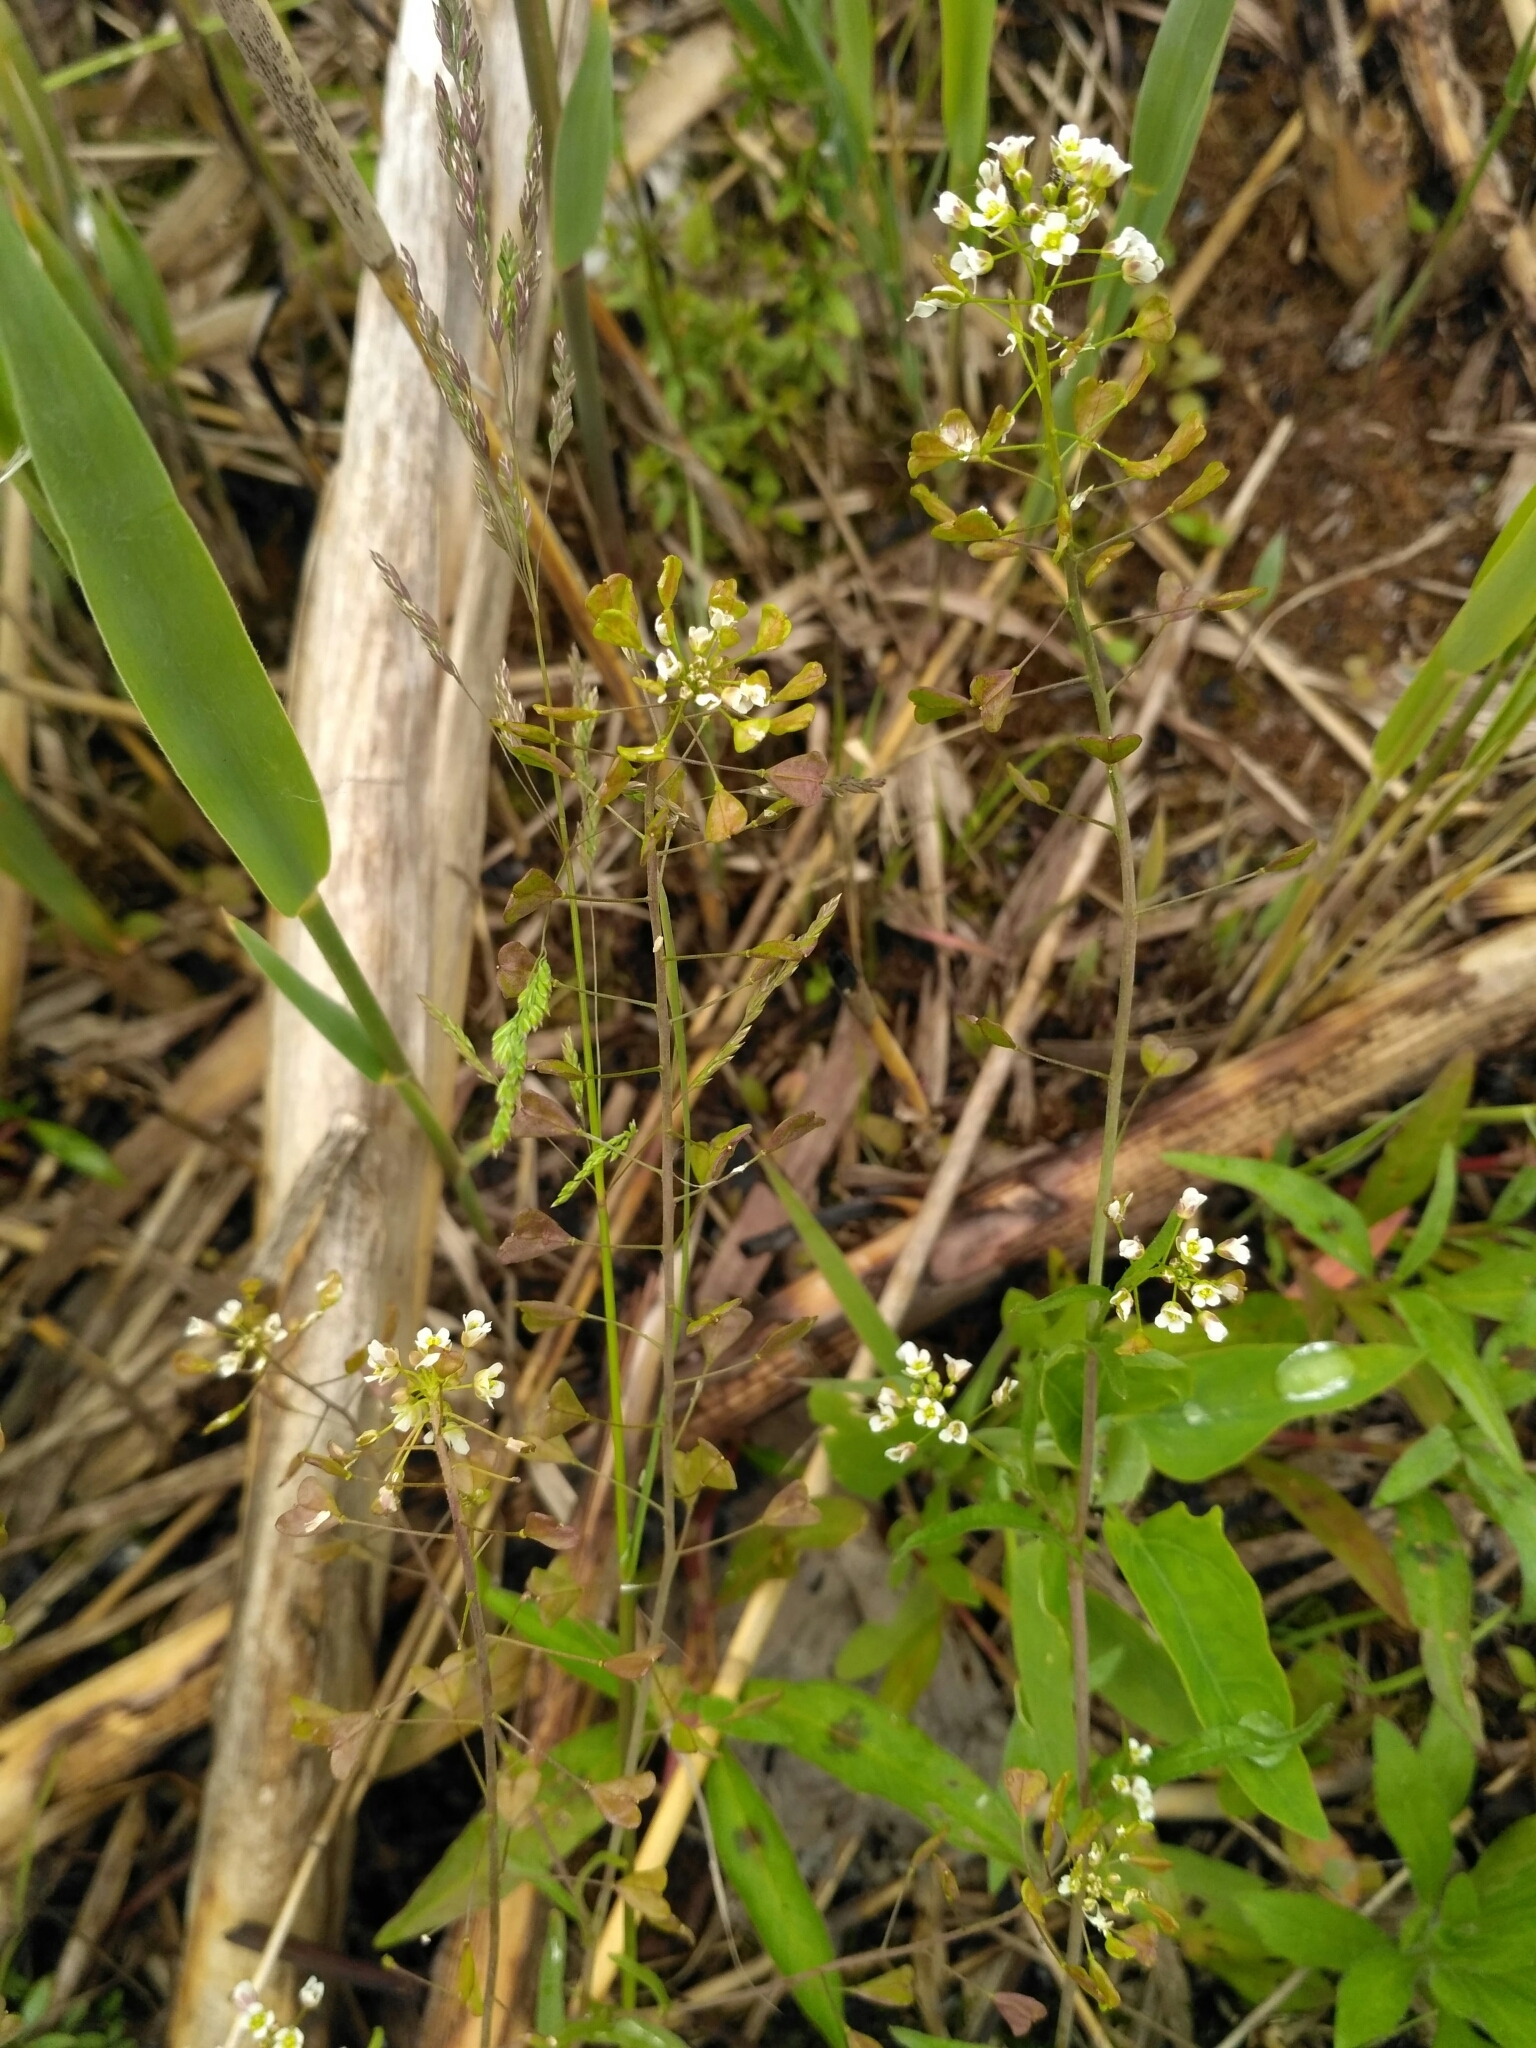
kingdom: Plantae
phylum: Tracheophyta
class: Magnoliopsida
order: Brassicales
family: Brassicaceae
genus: Capsella
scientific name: Capsella bursa-pastoris
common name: Shepherd's purse
